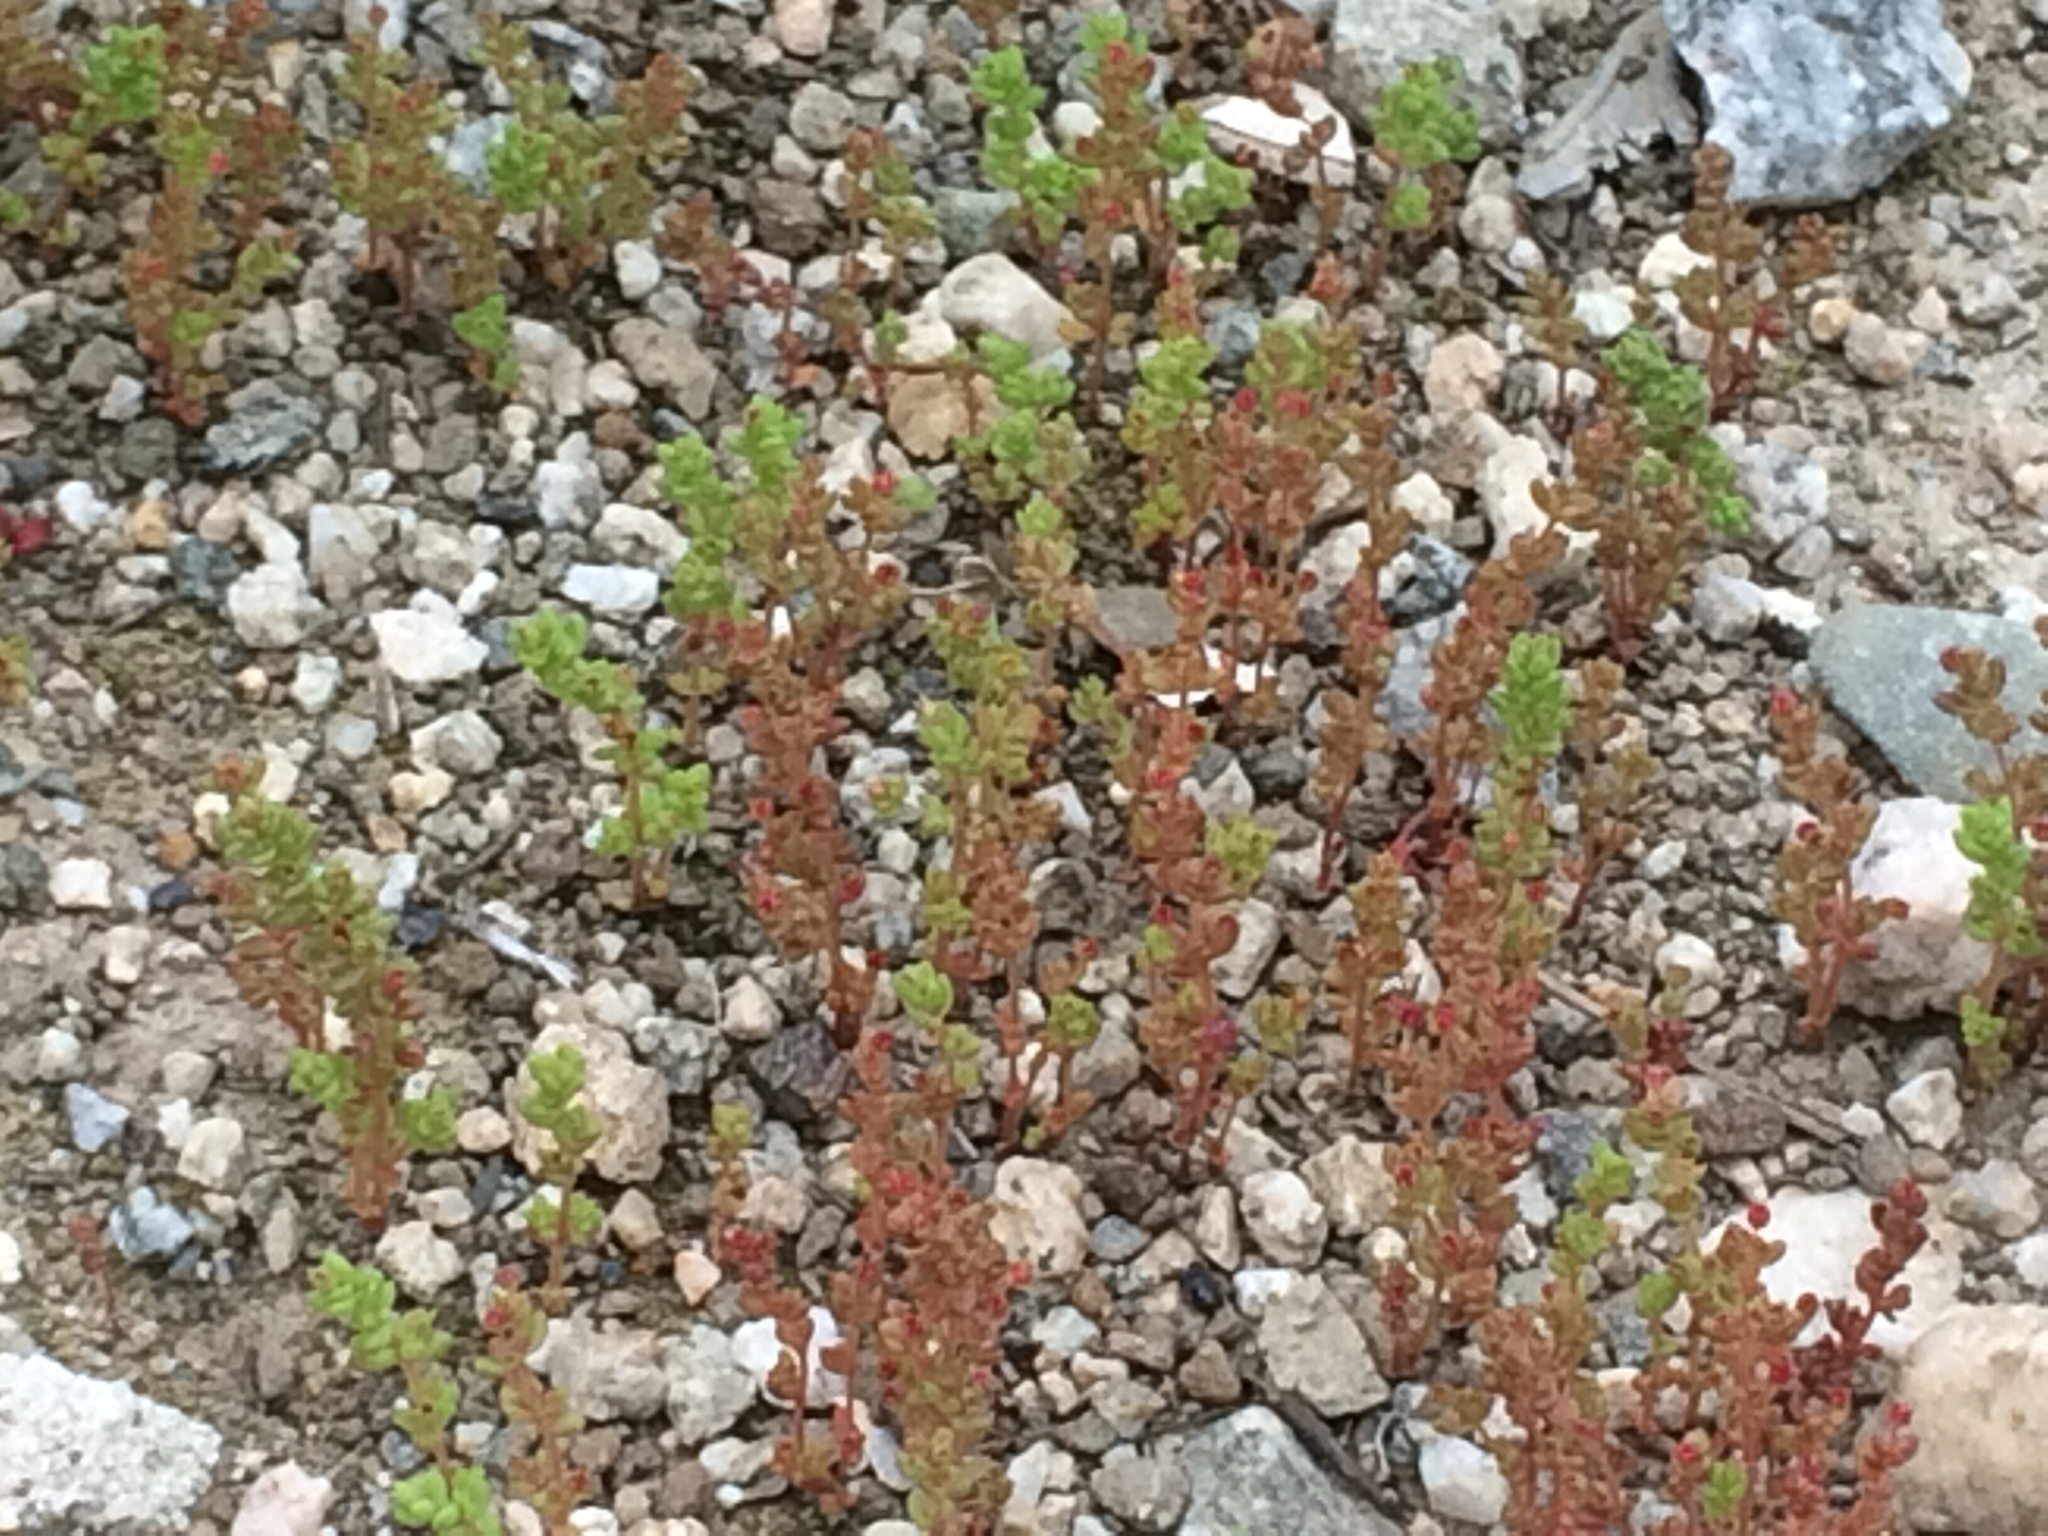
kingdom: Plantae
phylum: Tracheophyta
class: Magnoliopsida
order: Saxifragales
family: Crassulaceae
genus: Crassula
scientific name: Crassula connata
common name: Erect pygmyweed
